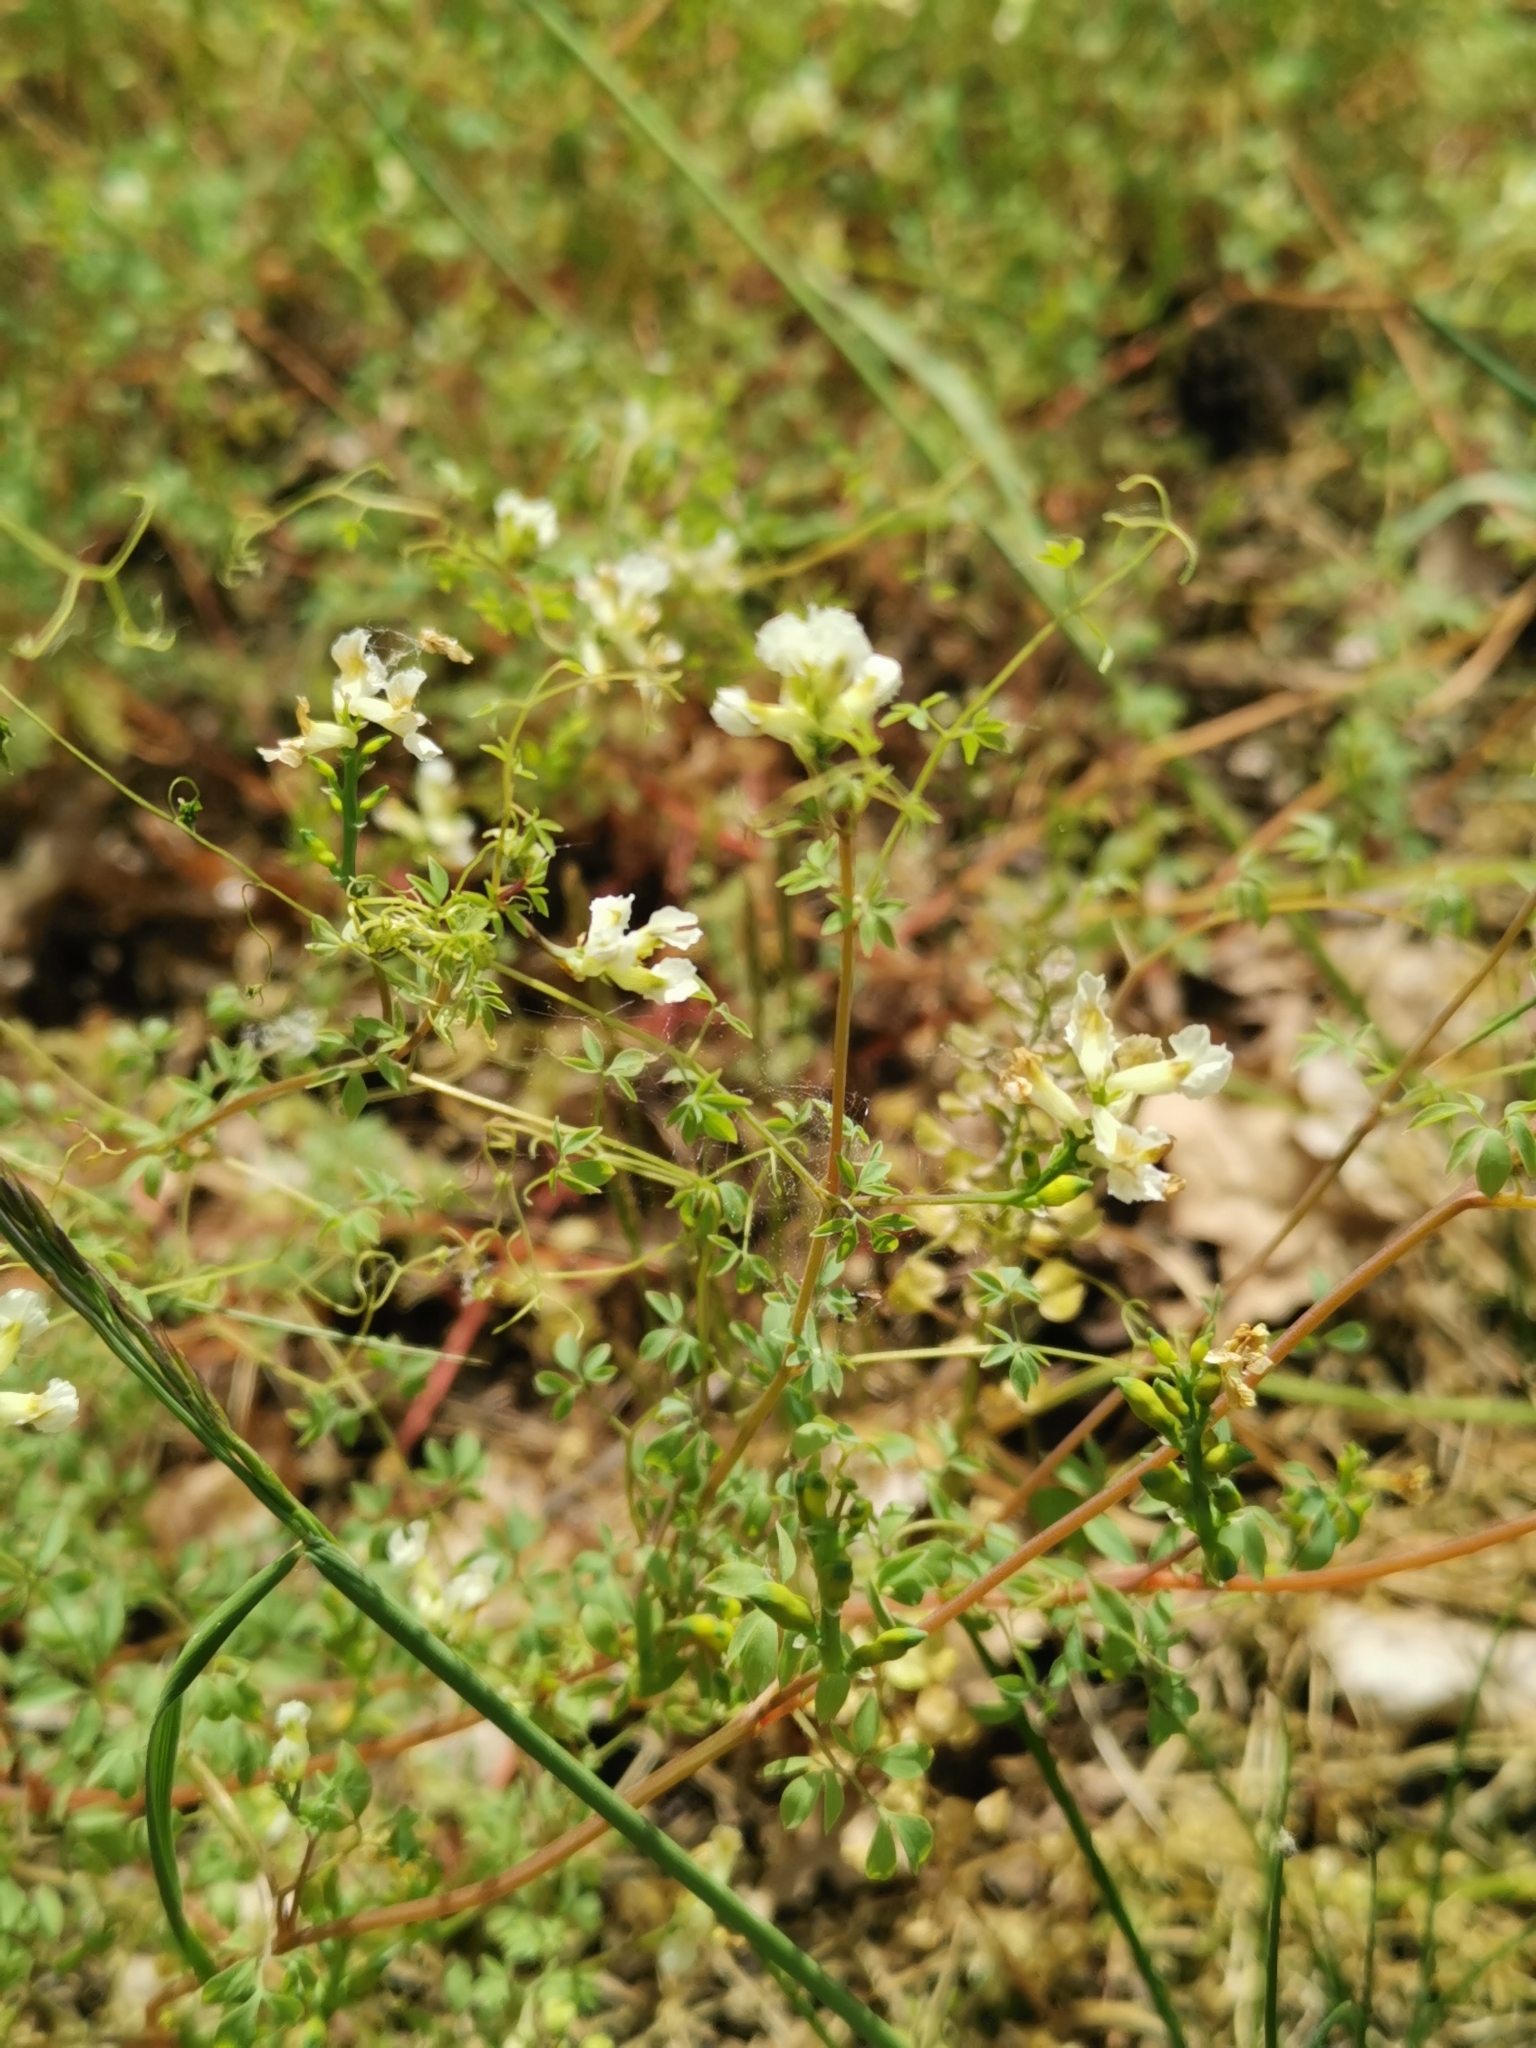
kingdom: Plantae
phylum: Tracheophyta
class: Magnoliopsida
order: Ranunculales
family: Papaveraceae
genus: Ceratocapnos
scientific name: Ceratocapnos claviculata
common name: Climbing corydalis
